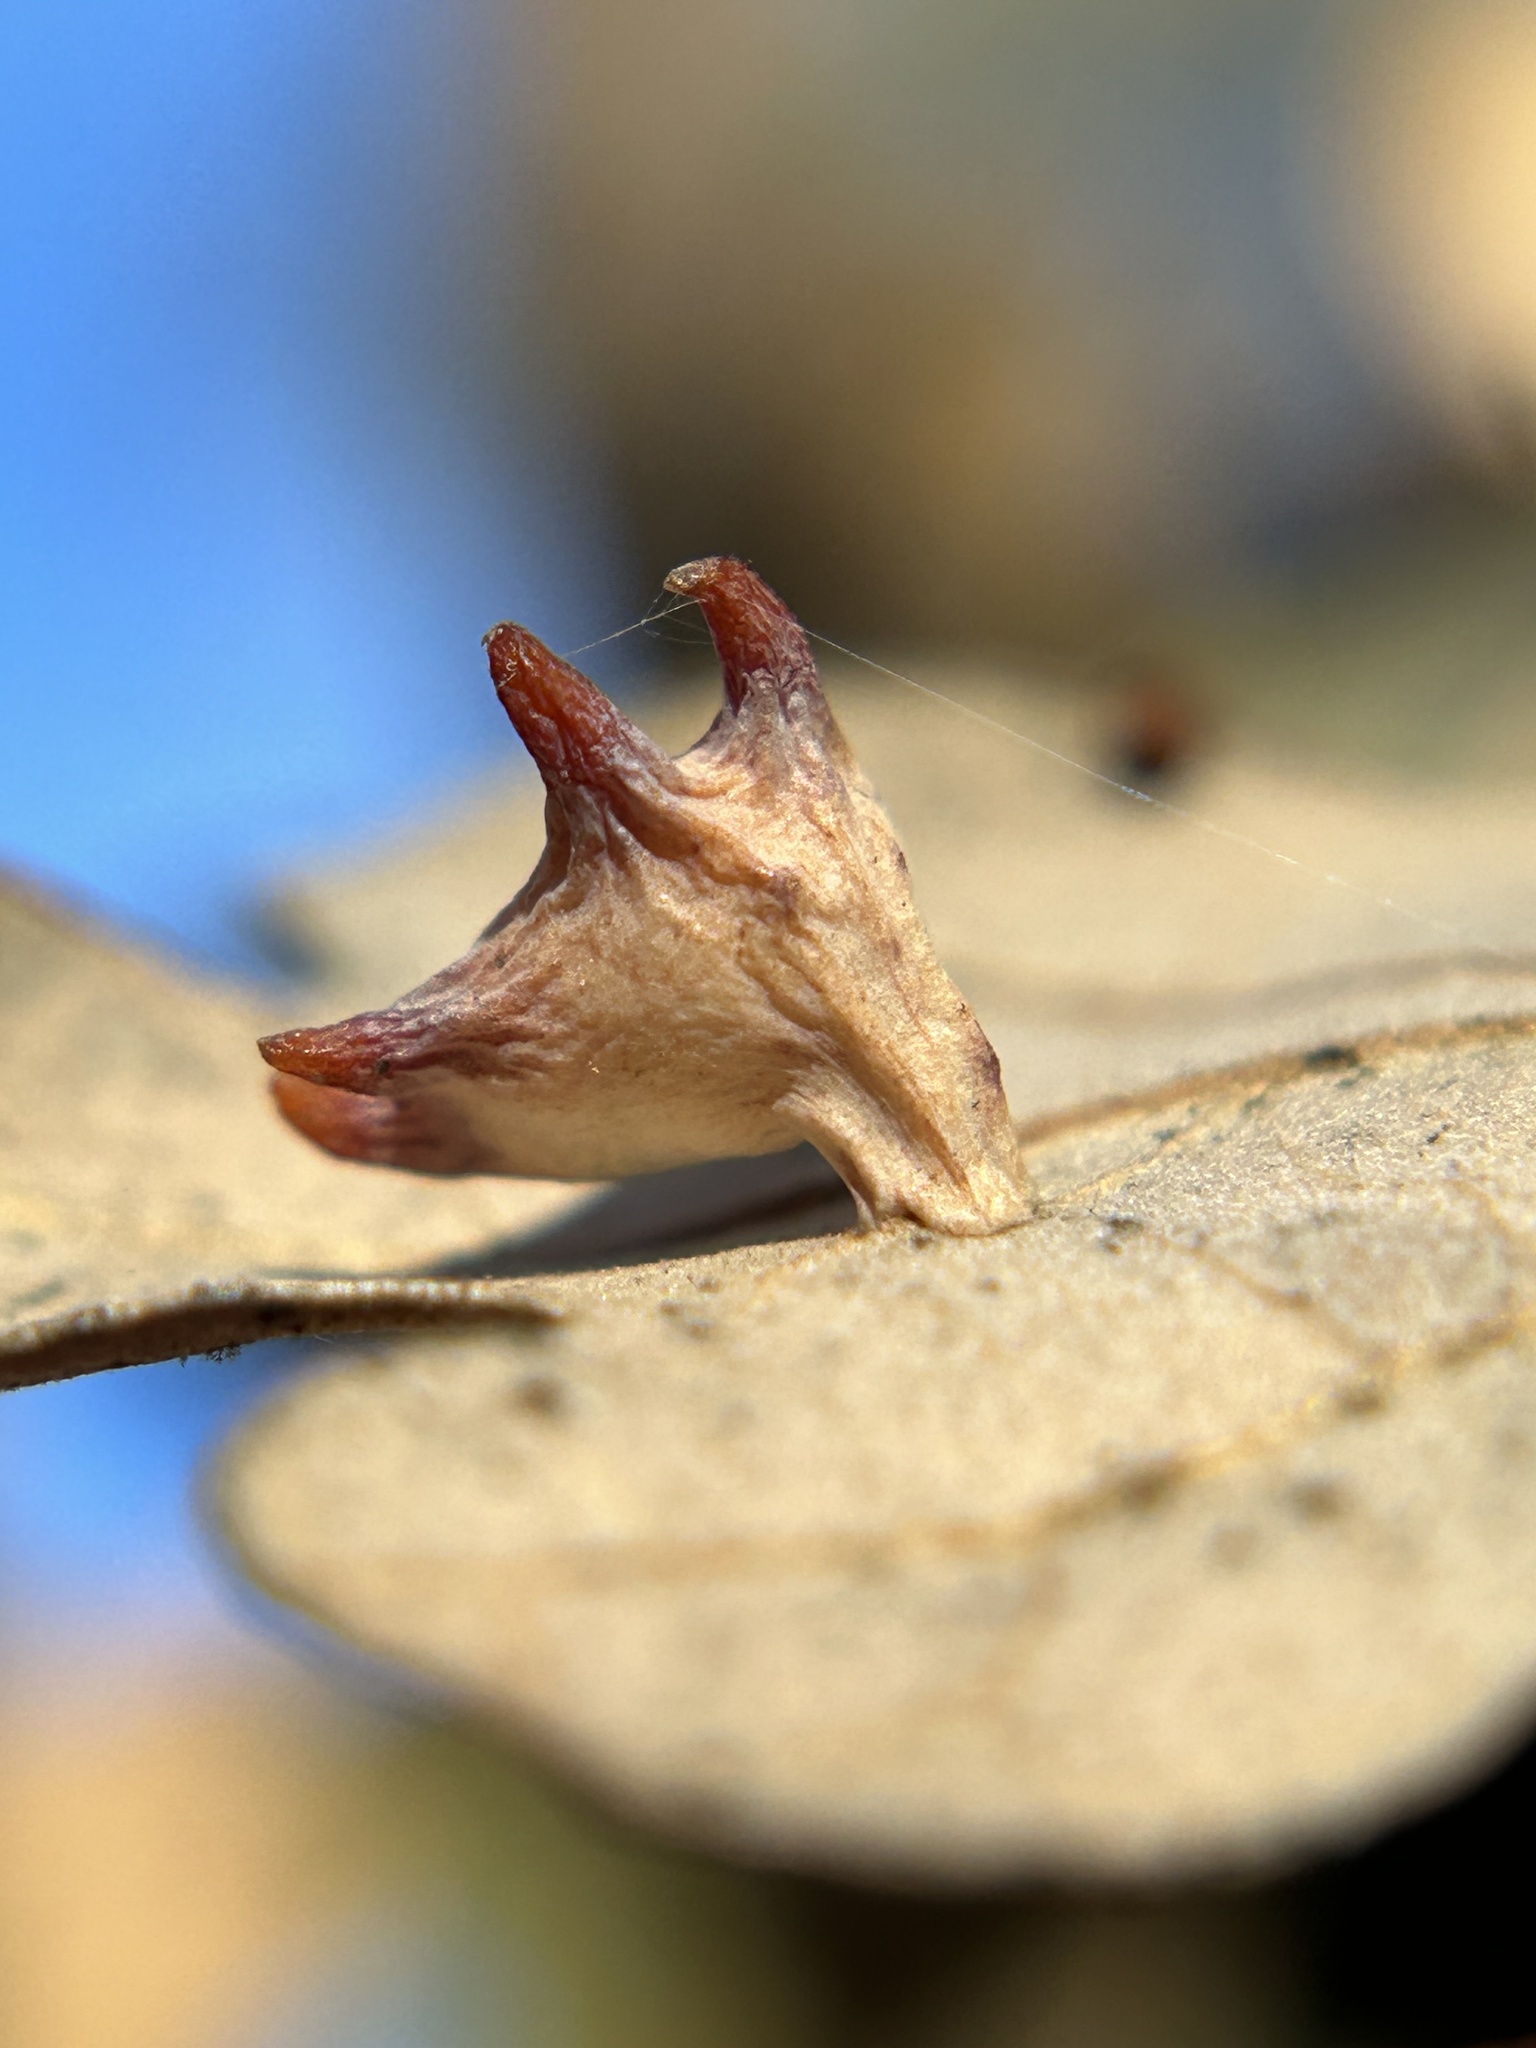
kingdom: Animalia
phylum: Arthropoda
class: Insecta
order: Hymenoptera
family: Cynipidae
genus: Cynips
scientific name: Cynips douglasi
